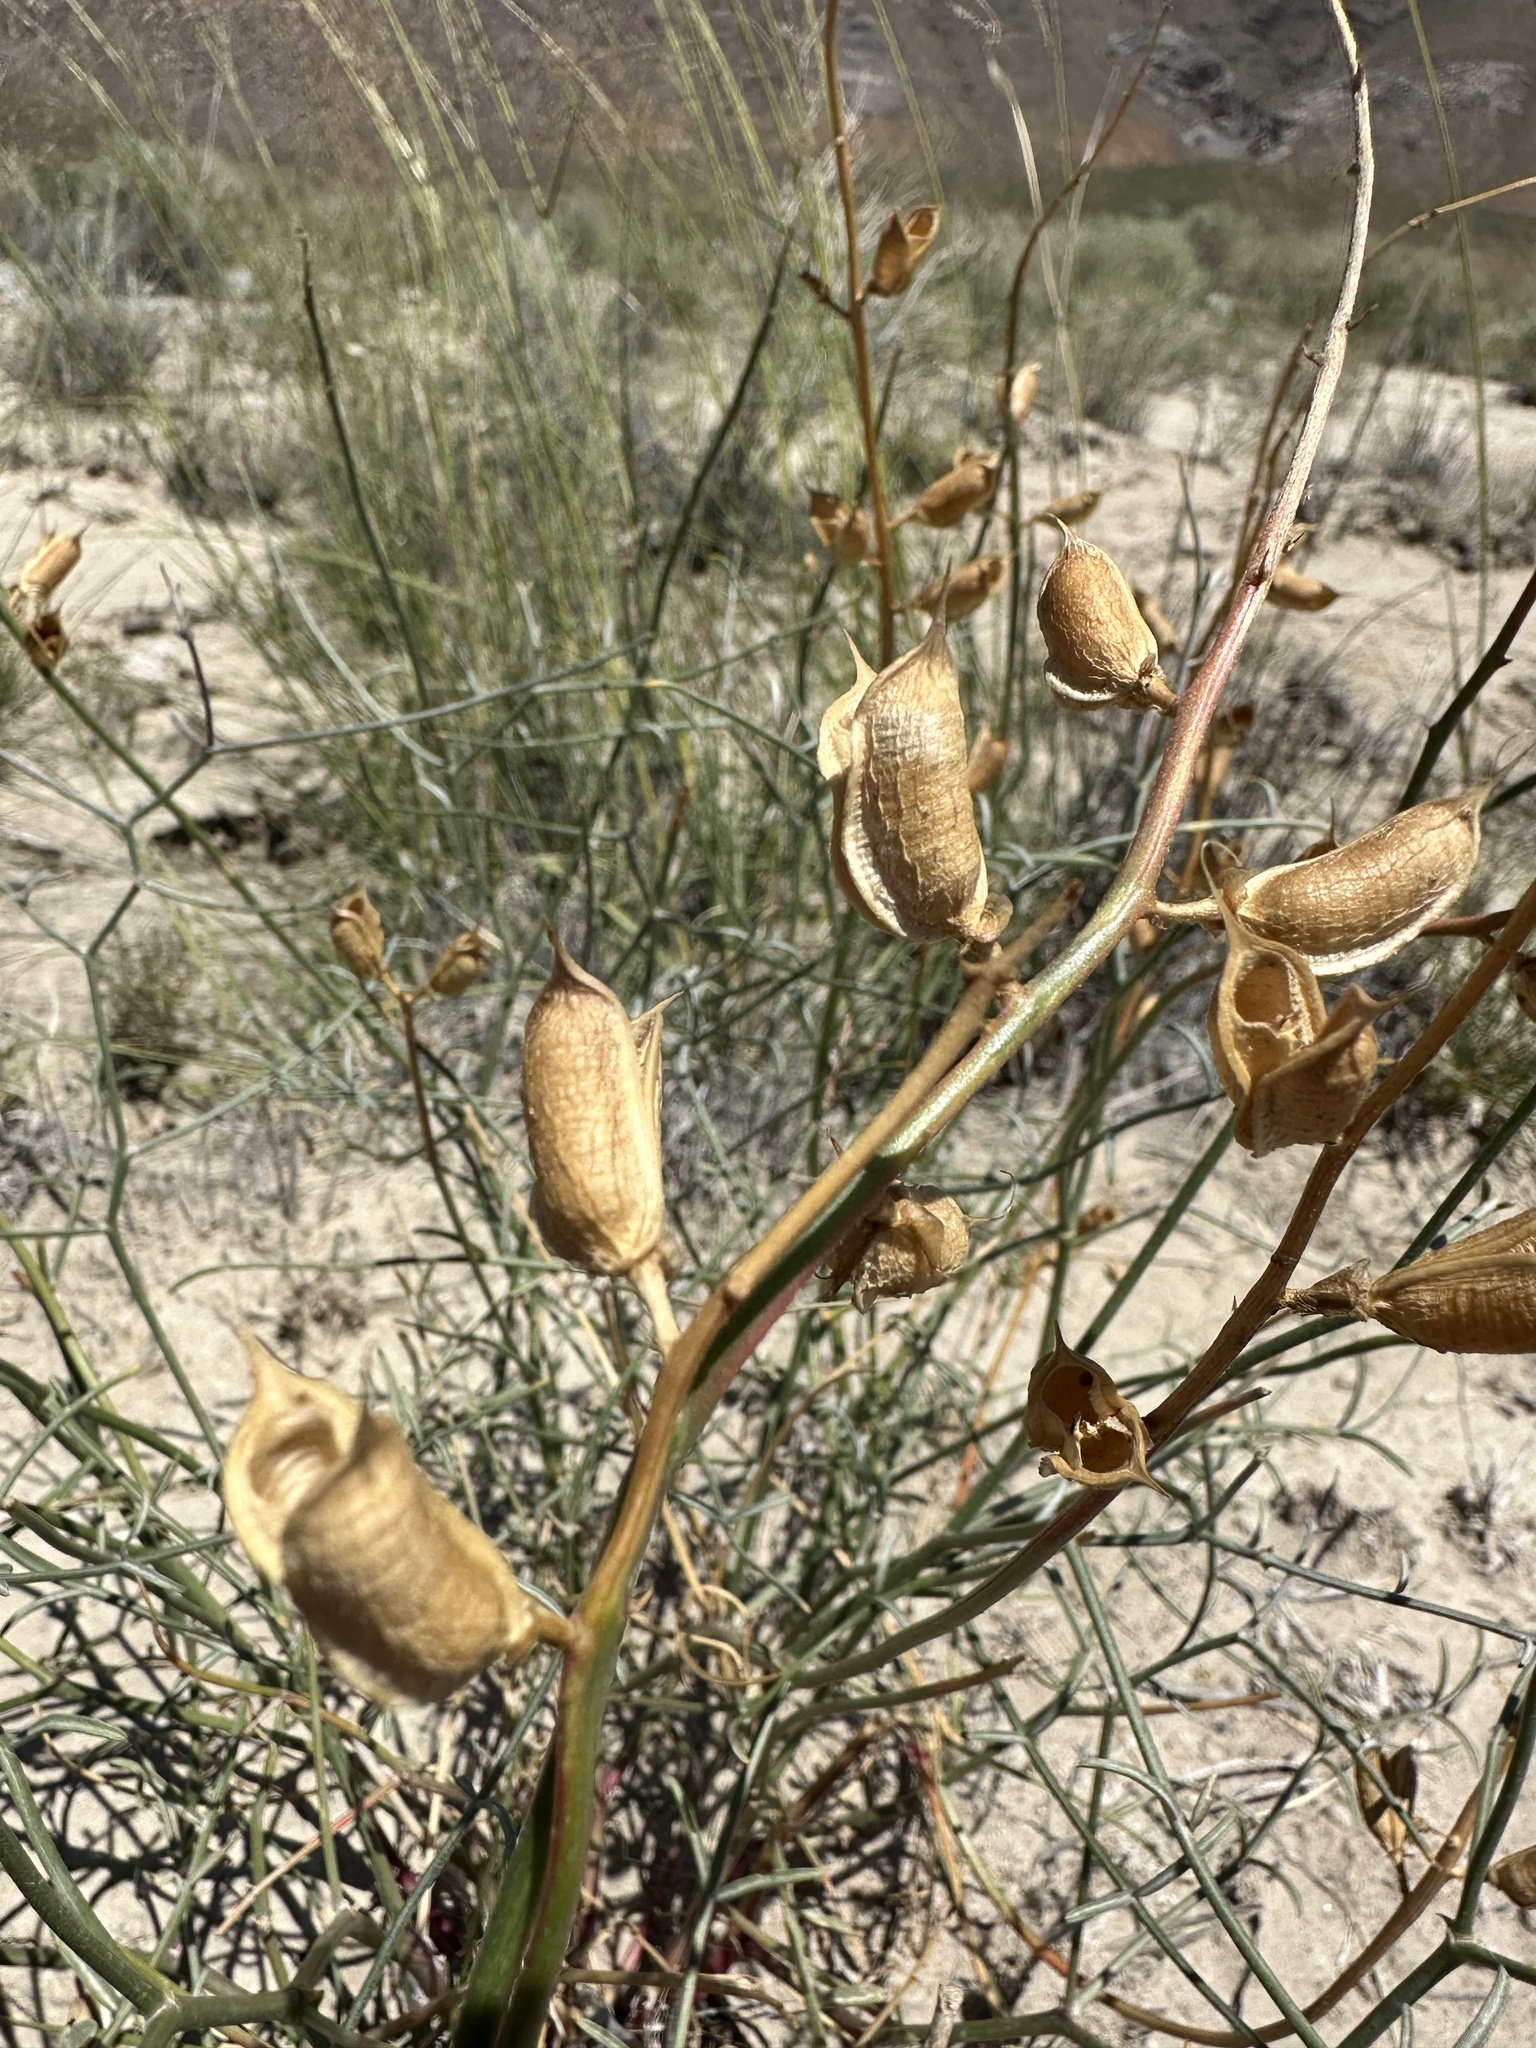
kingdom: Plantae
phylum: Tracheophyta
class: Magnoliopsida
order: Fabales
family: Fabaceae
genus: Astragalus
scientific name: Astragalus serenoi
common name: Naked milk-vetch
